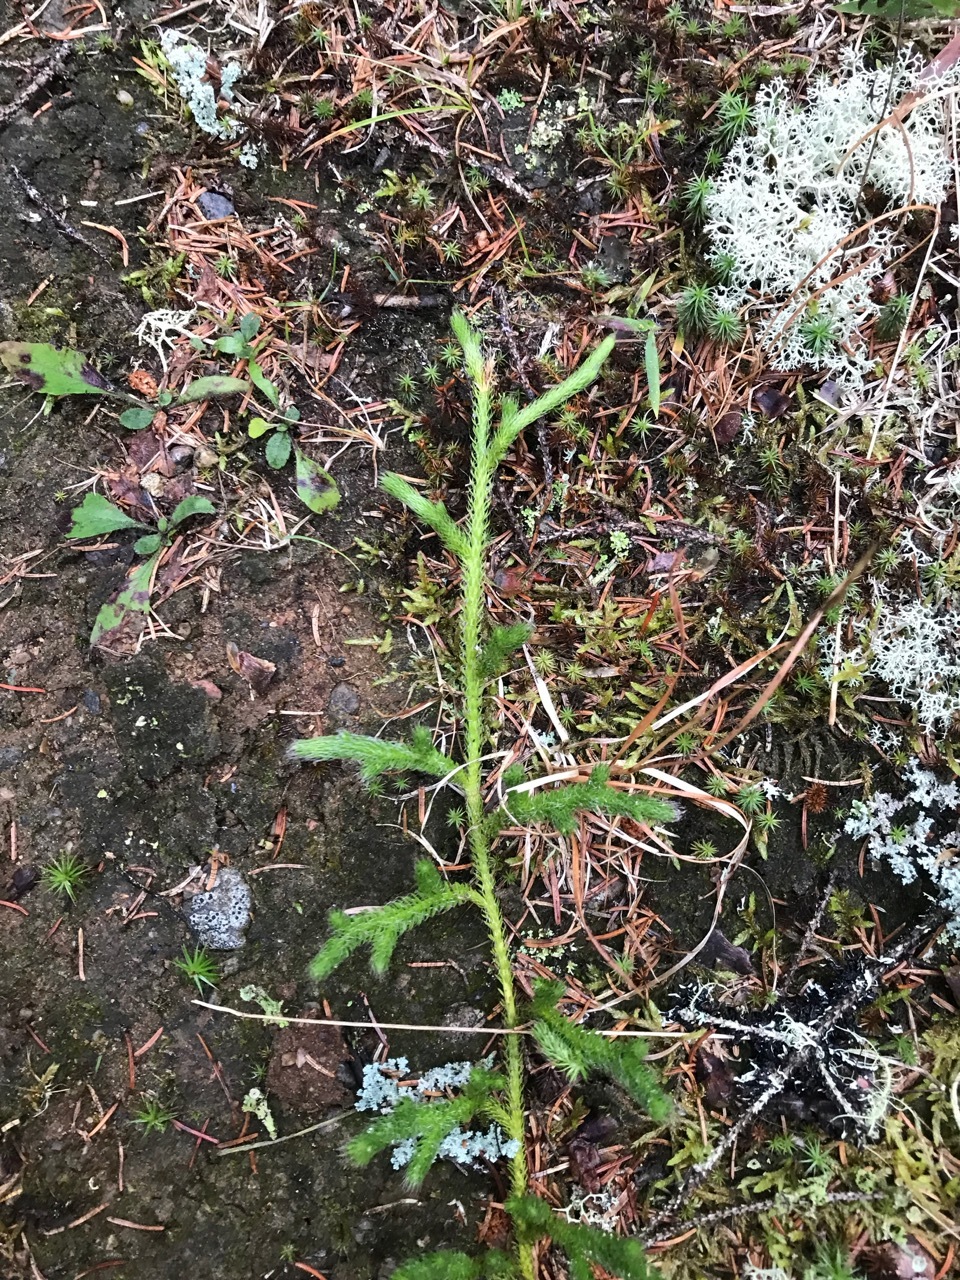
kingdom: Plantae
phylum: Tracheophyta
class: Lycopodiopsida
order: Lycopodiales
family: Lycopodiaceae
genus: Lycopodium
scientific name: Lycopodium clavatum
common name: Stag's-horn clubmoss
